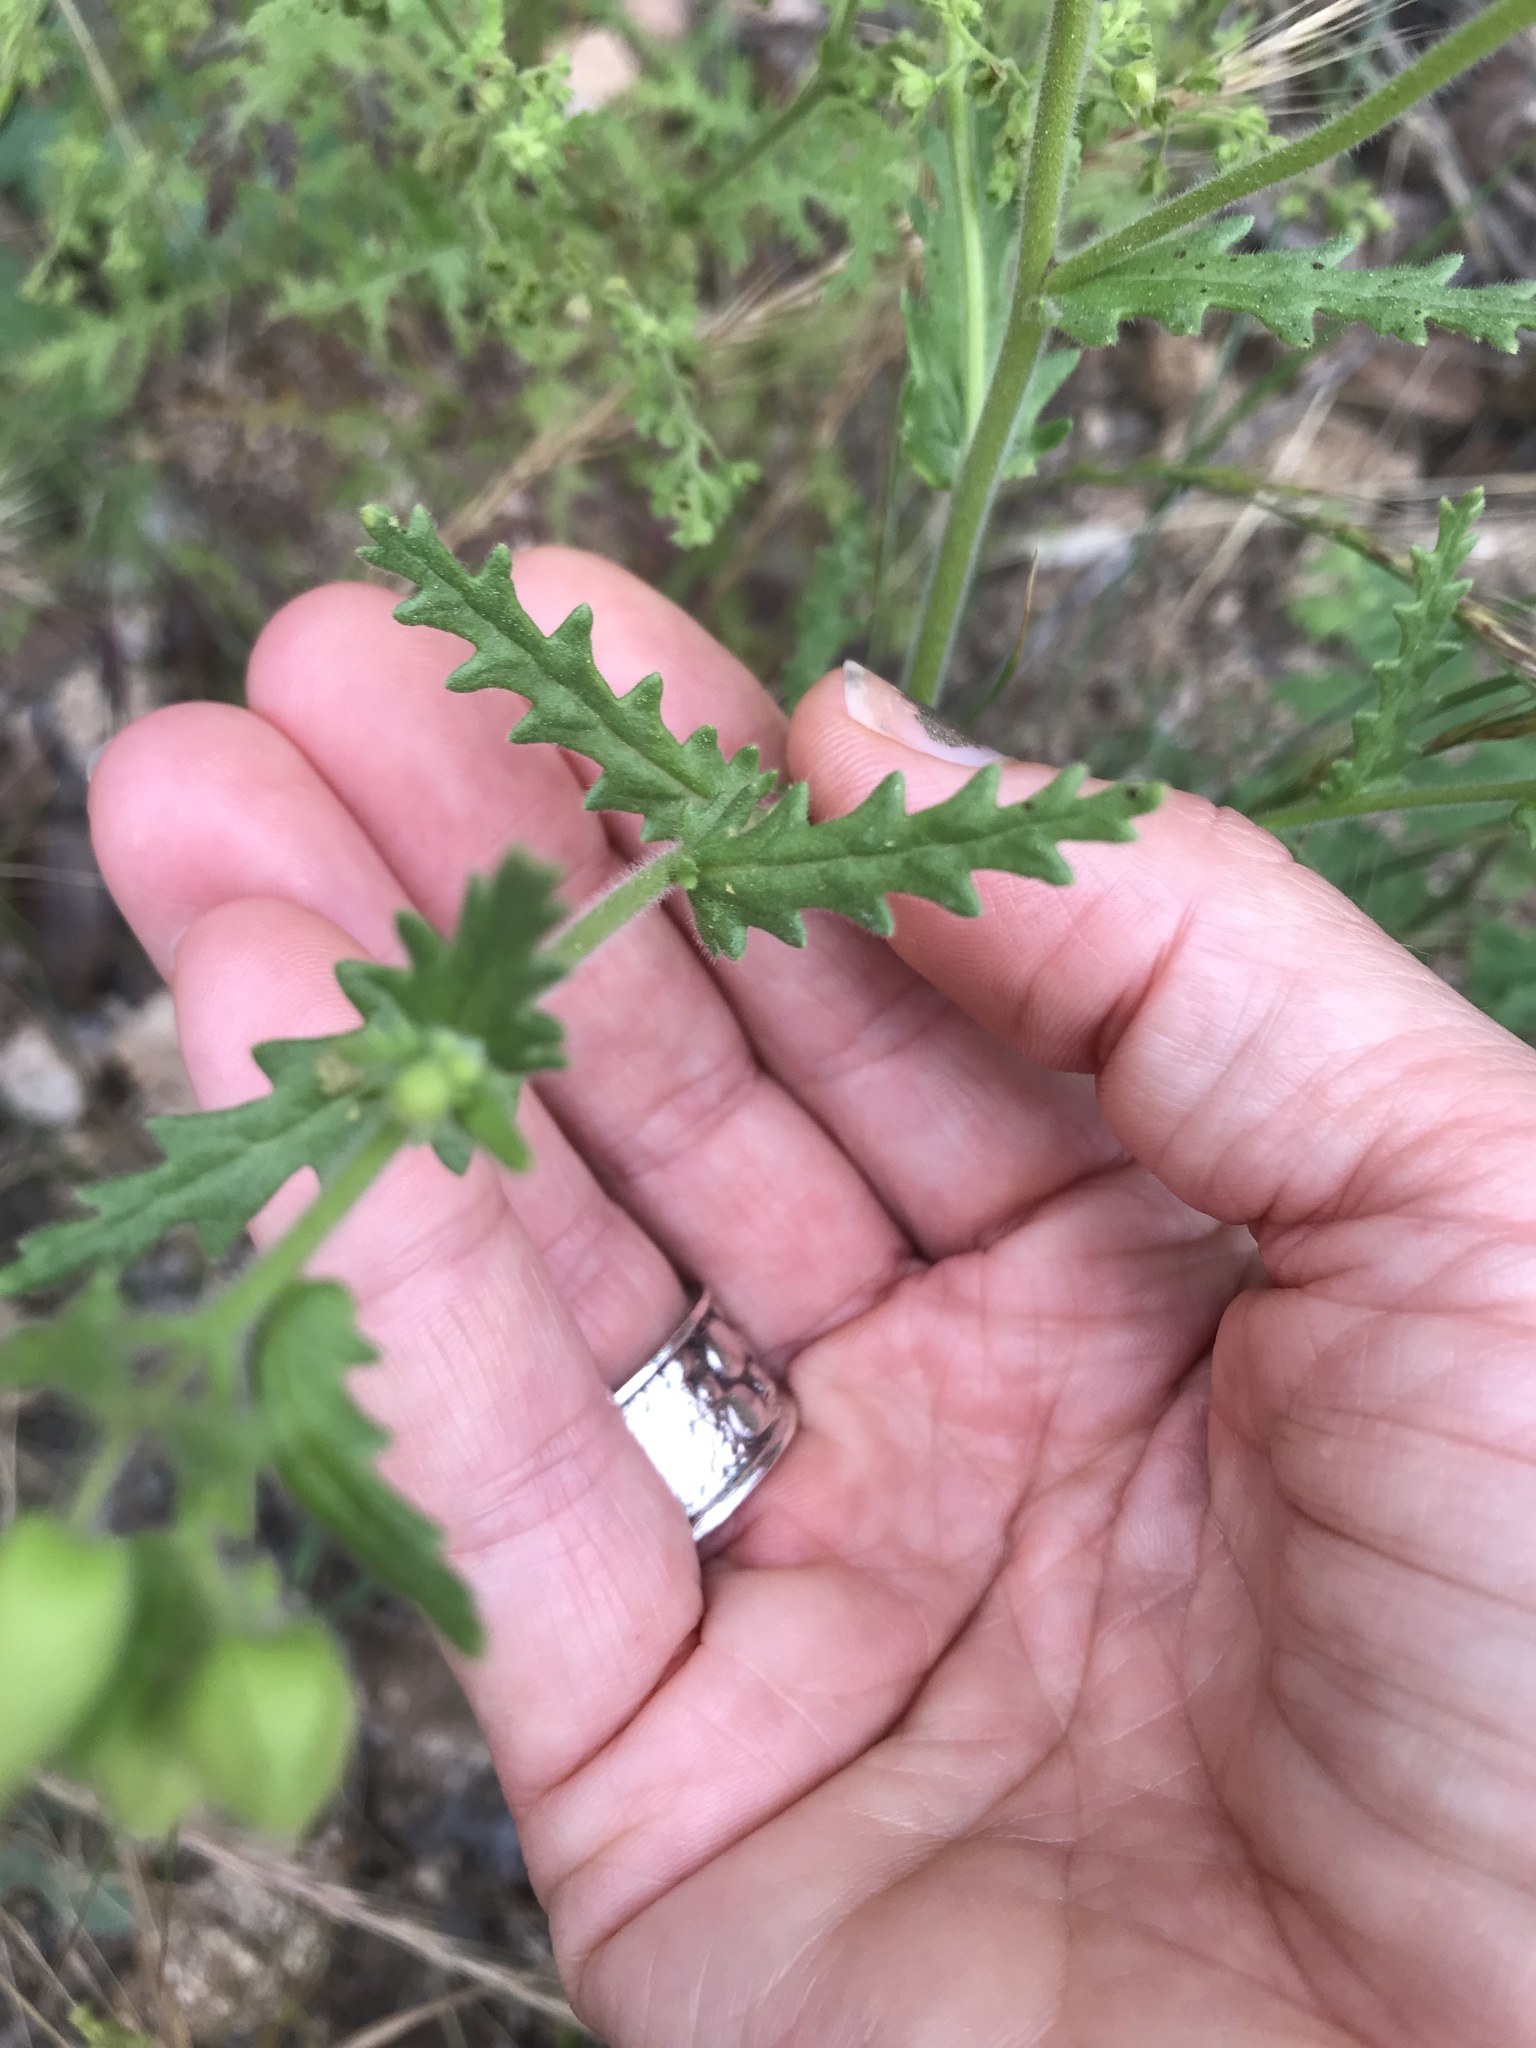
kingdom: Plantae
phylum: Tracheophyta
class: Magnoliopsida
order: Boraginales
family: Hydrophyllaceae
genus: Emmenanthe
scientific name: Emmenanthe penduliflora
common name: Whispering-bells
